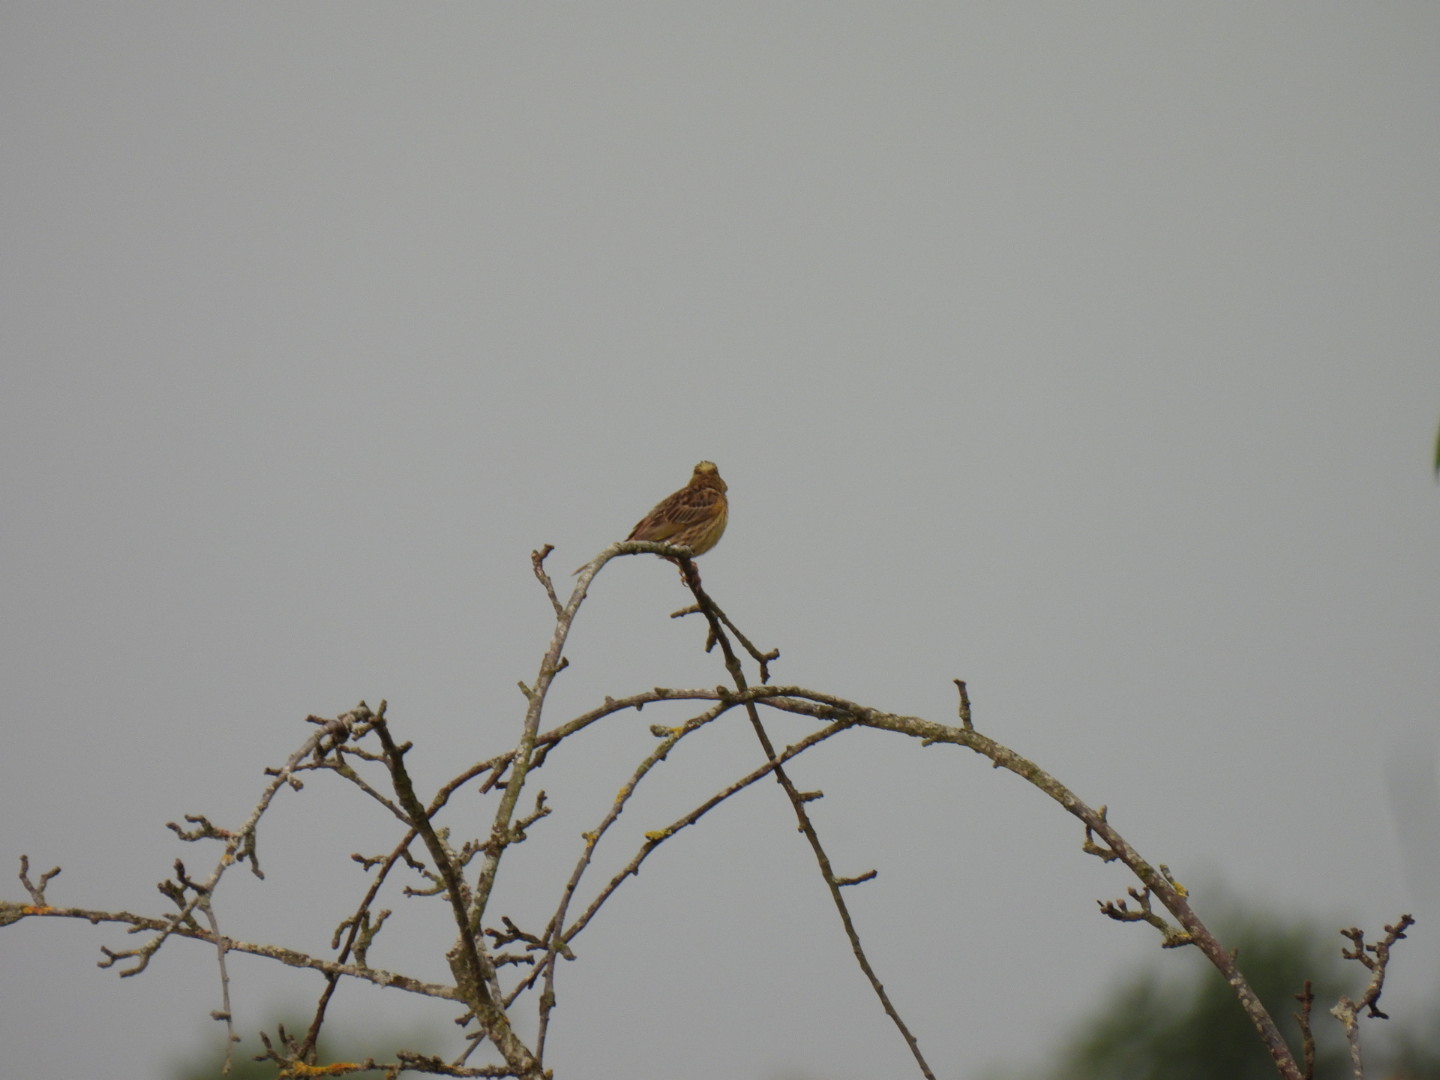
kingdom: Animalia
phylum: Chordata
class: Aves
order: Passeriformes
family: Emberizidae
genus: Emberiza
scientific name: Emberiza citrinella
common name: Yellowhammer
